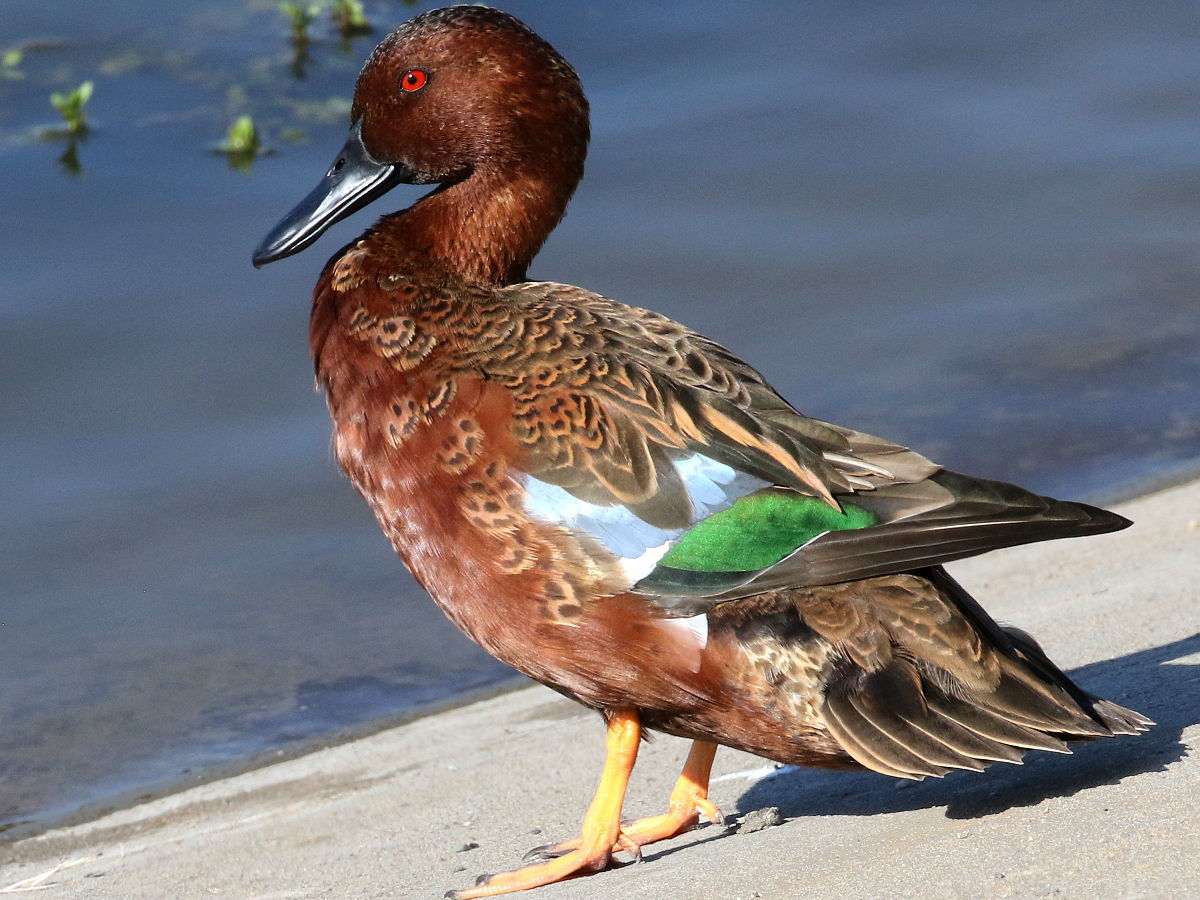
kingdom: Animalia
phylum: Chordata
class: Aves
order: Anseriformes
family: Anatidae
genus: Spatula
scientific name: Spatula cyanoptera
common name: Cinnamon teal
